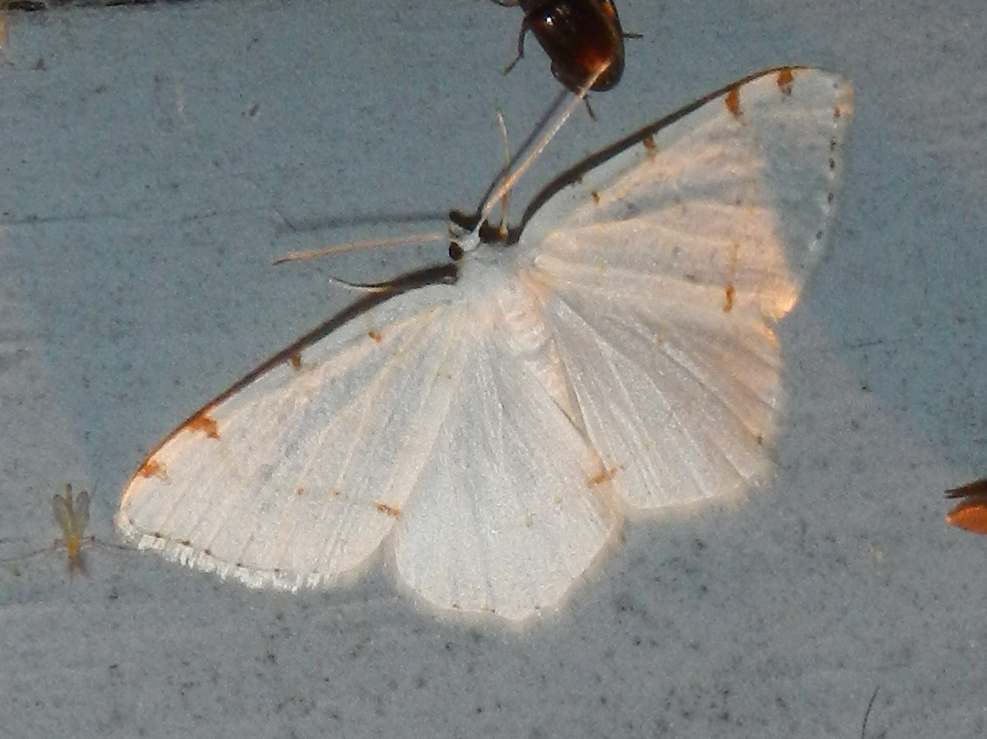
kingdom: Animalia
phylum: Arthropoda
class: Insecta
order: Lepidoptera
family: Geometridae
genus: Macaria
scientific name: Macaria pustularia
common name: Lesser maple spanworm moth
